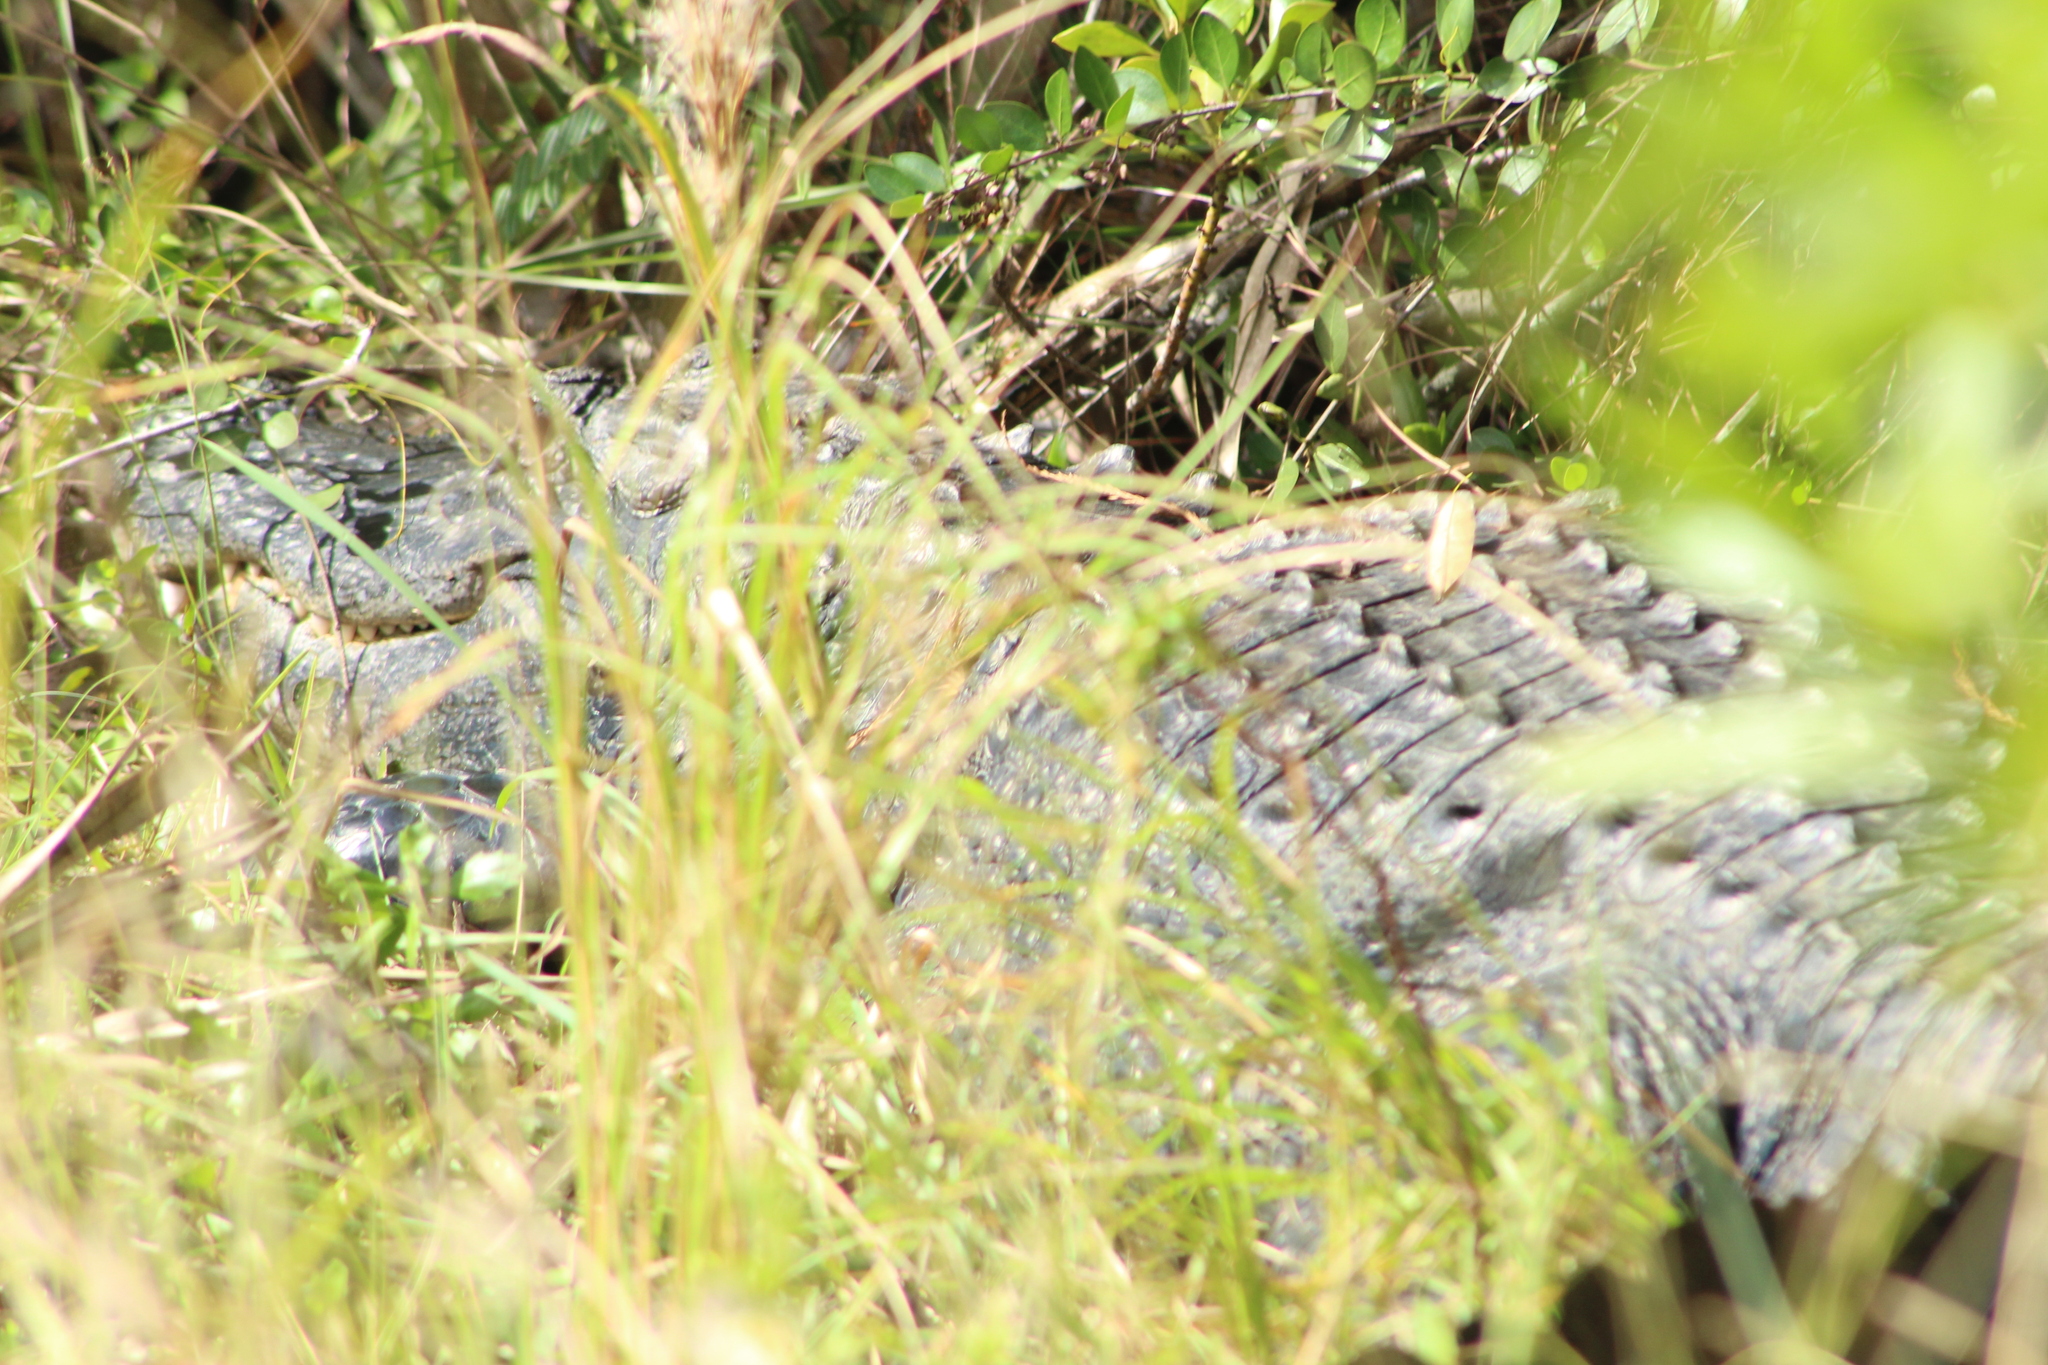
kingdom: Animalia
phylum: Chordata
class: Crocodylia
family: Alligatoridae
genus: Alligator
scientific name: Alligator mississippiensis
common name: American alligator
